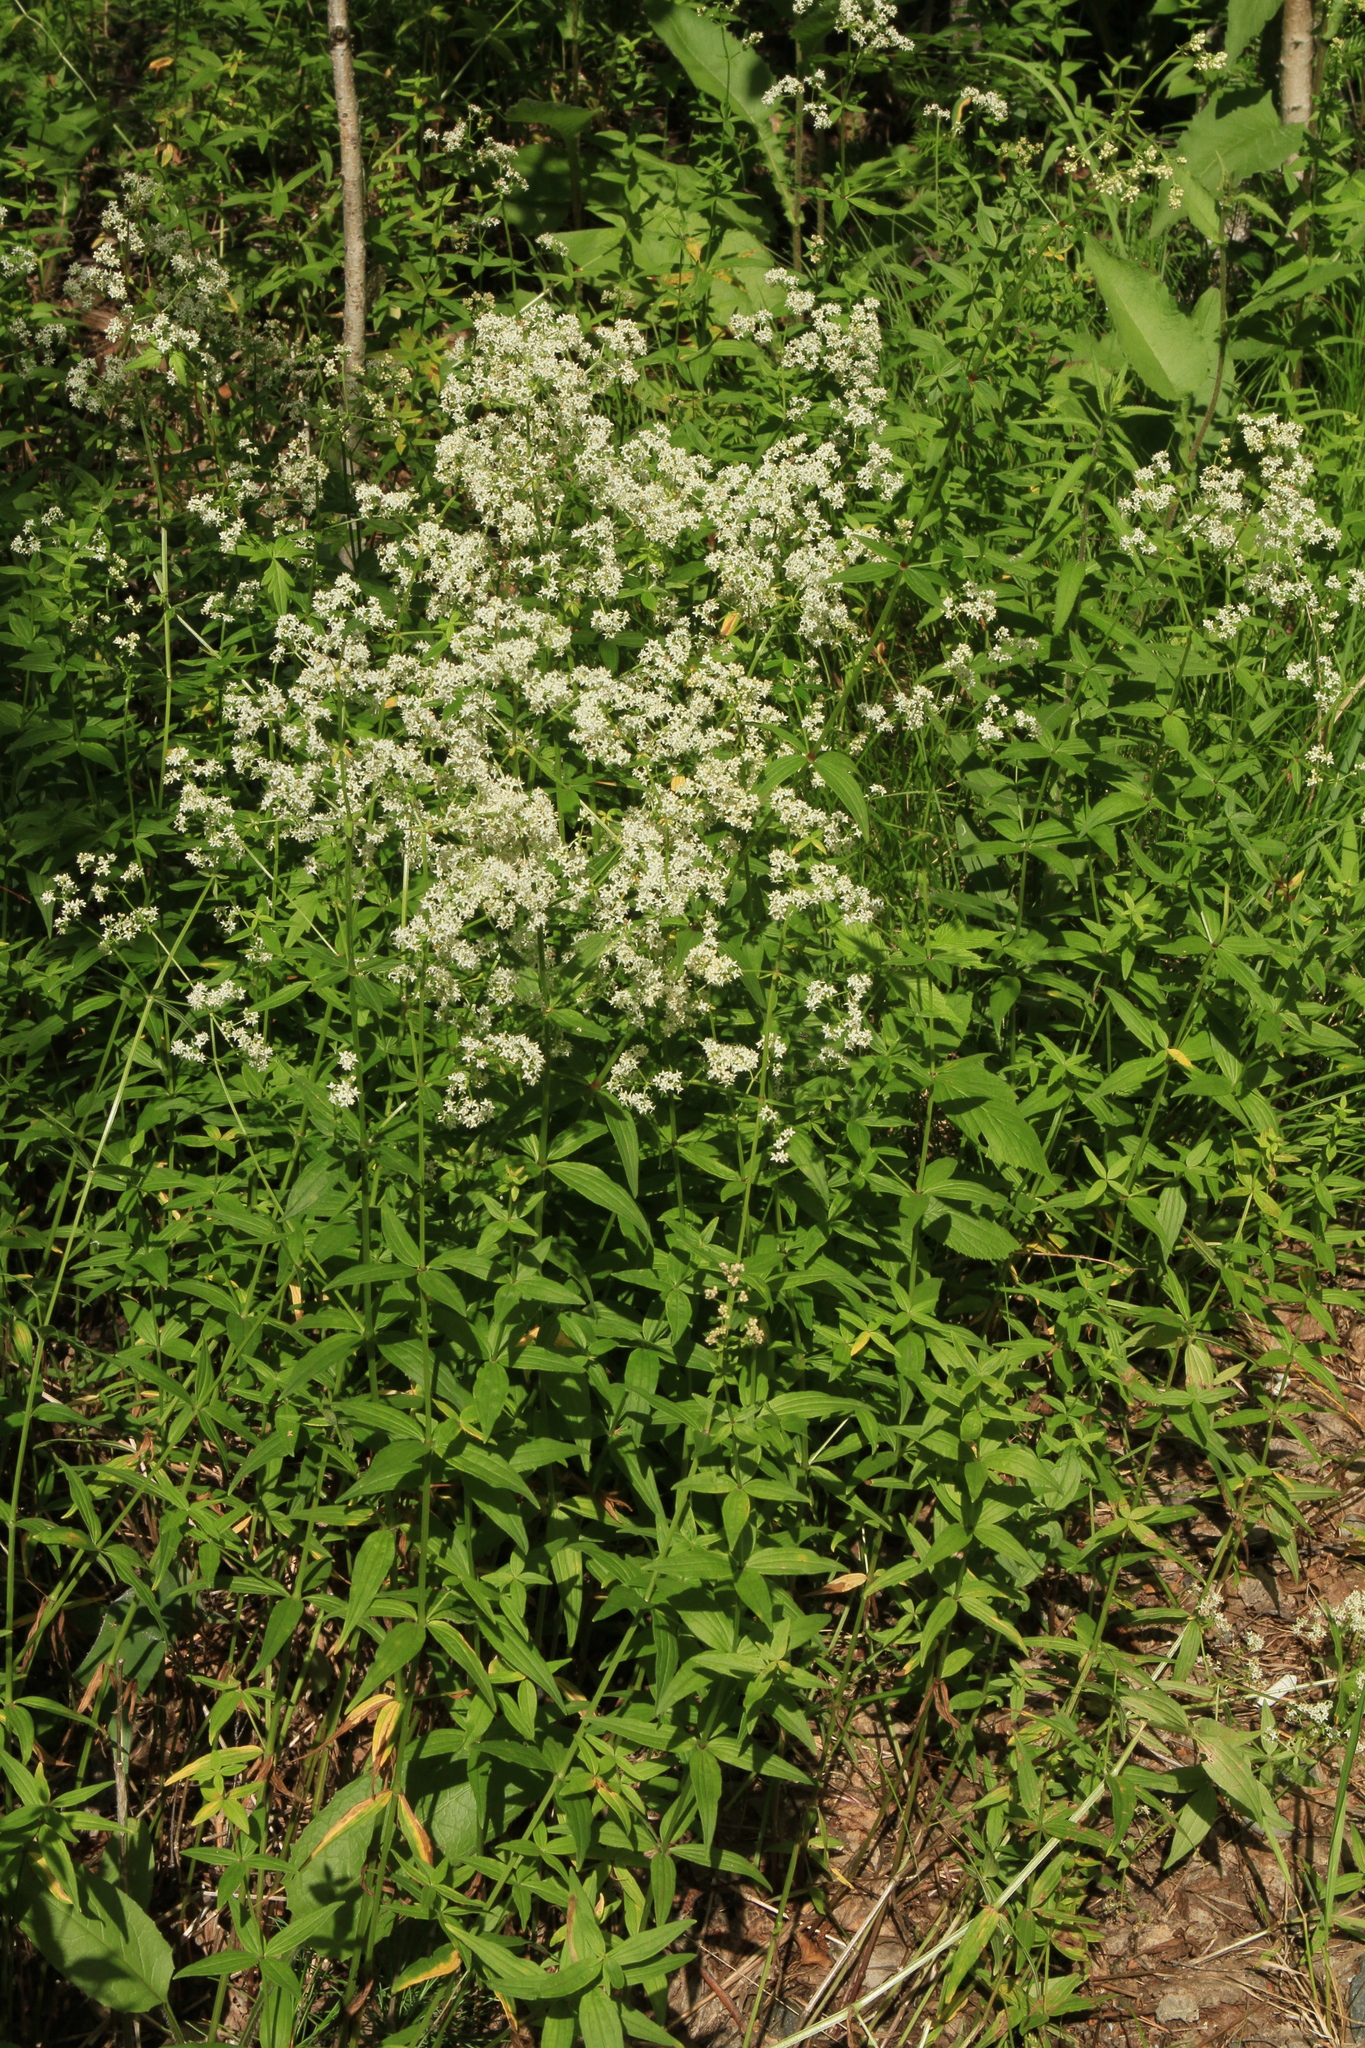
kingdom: Plantae
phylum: Tracheophyta
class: Magnoliopsida
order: Gentianales
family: Rubiaceae
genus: Galium
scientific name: Galium boreale
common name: Northern bedstraw
